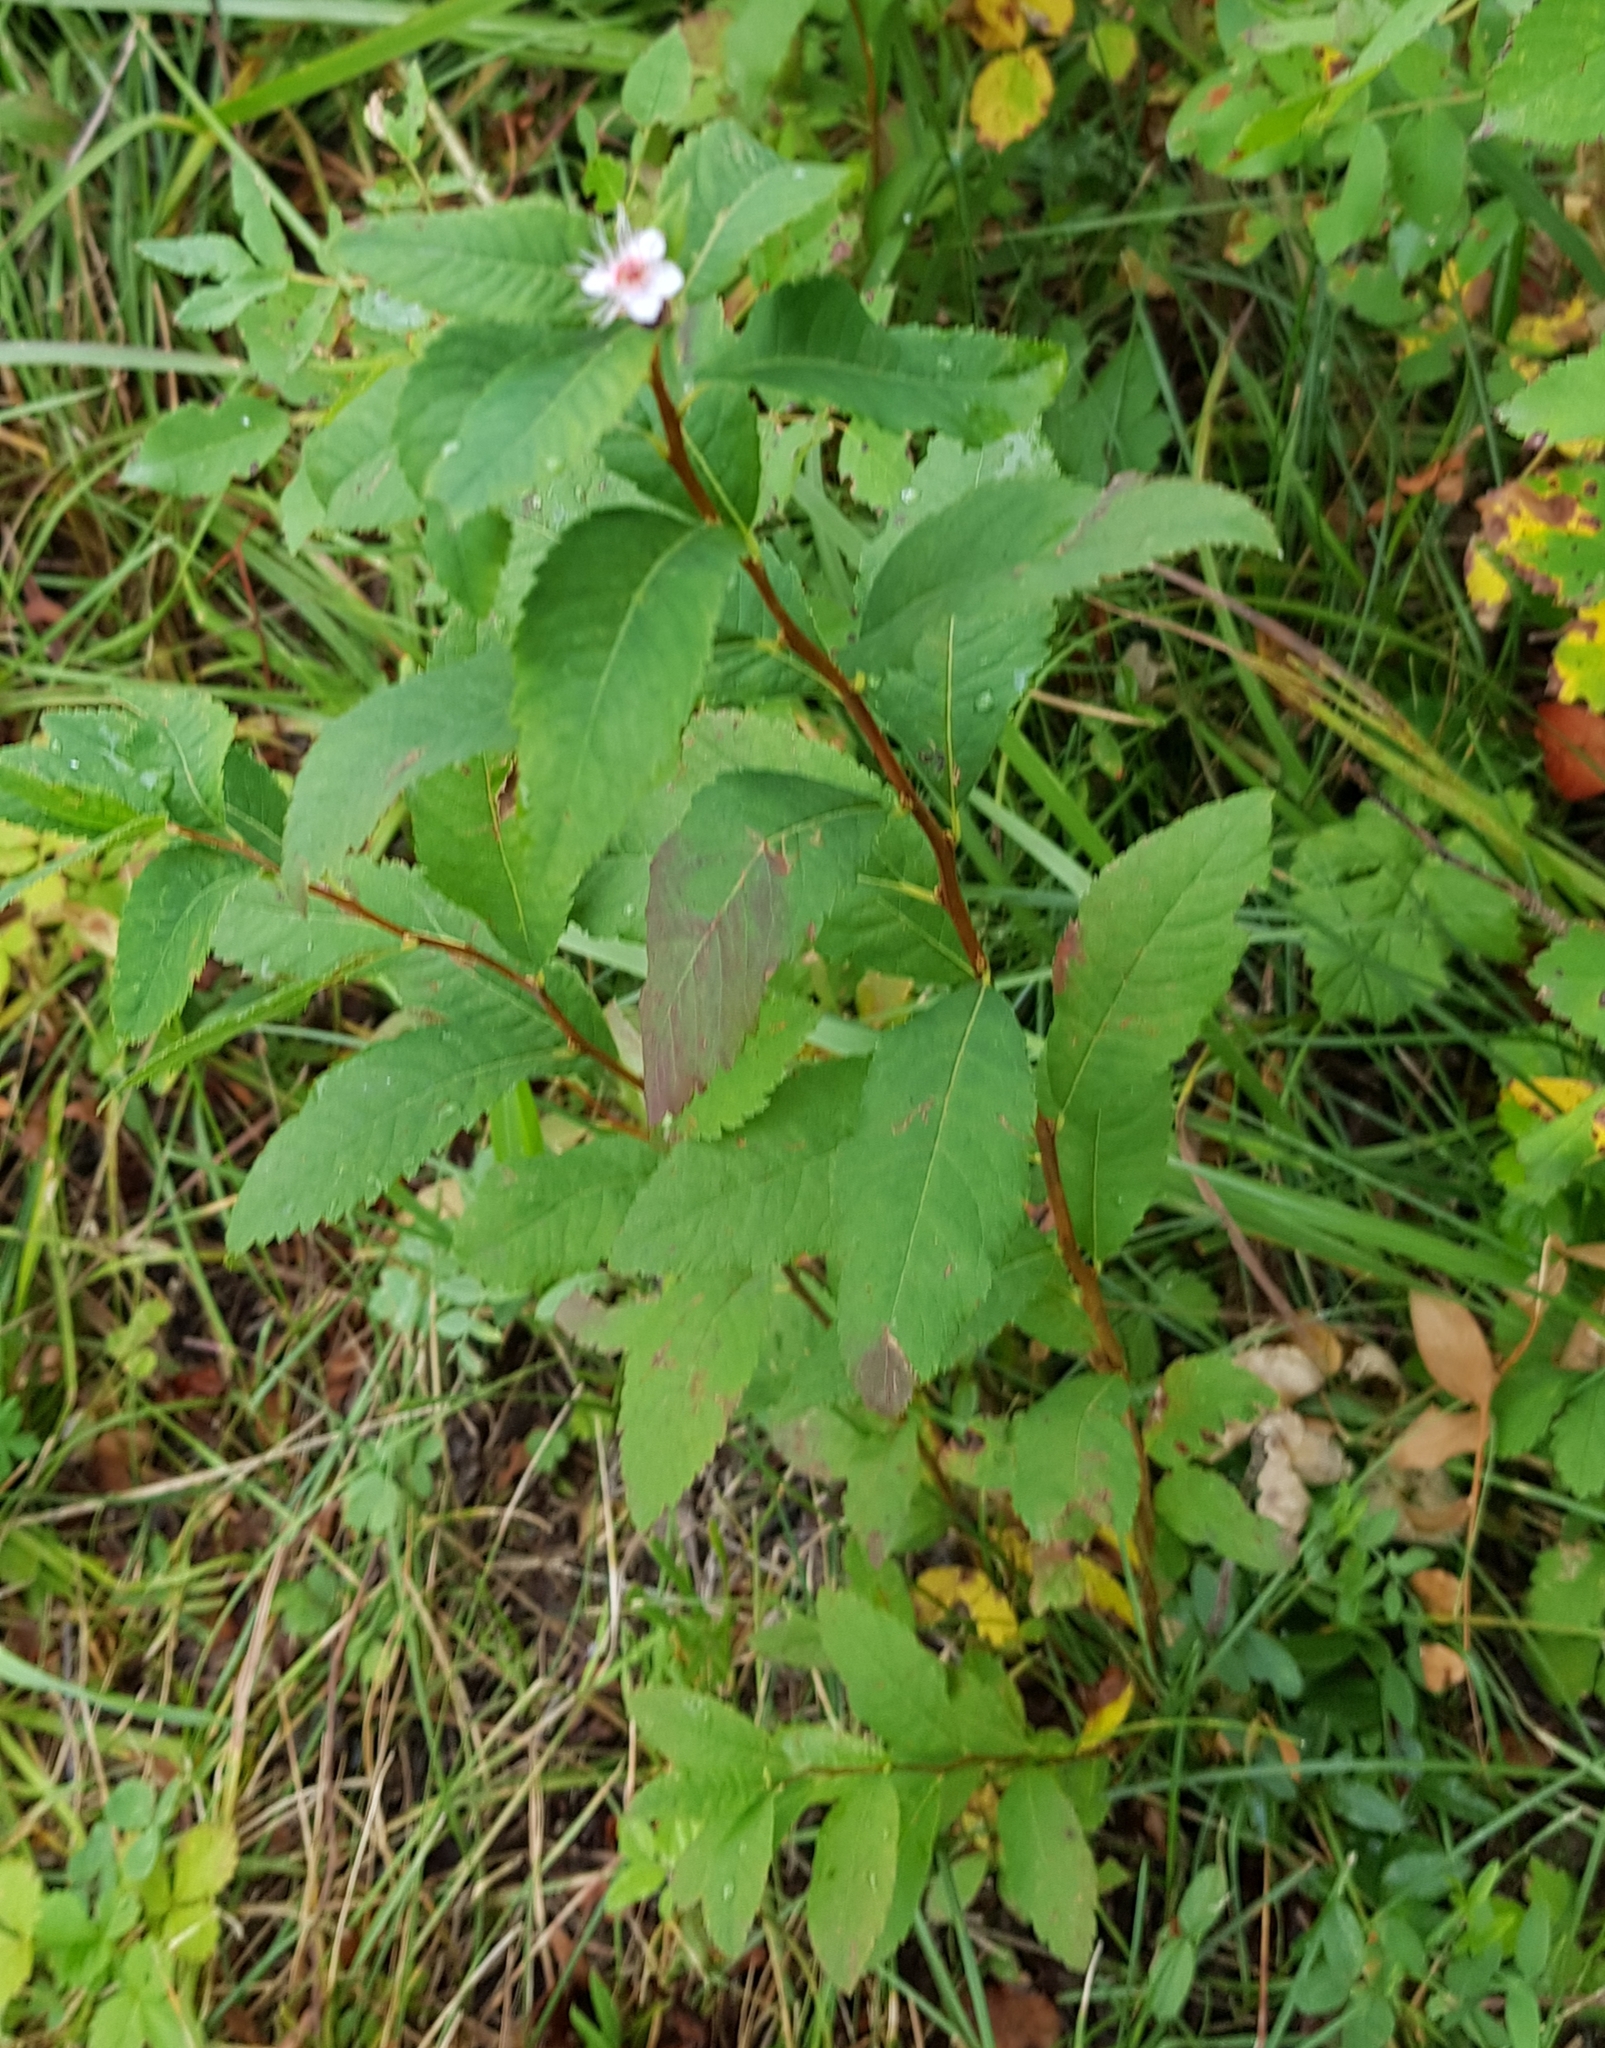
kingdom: Plantae
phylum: Tracheophyta
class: Magnoliopsida
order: Rosales
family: Rosaceae
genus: Spiraea
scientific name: Spiraea flexuosa
